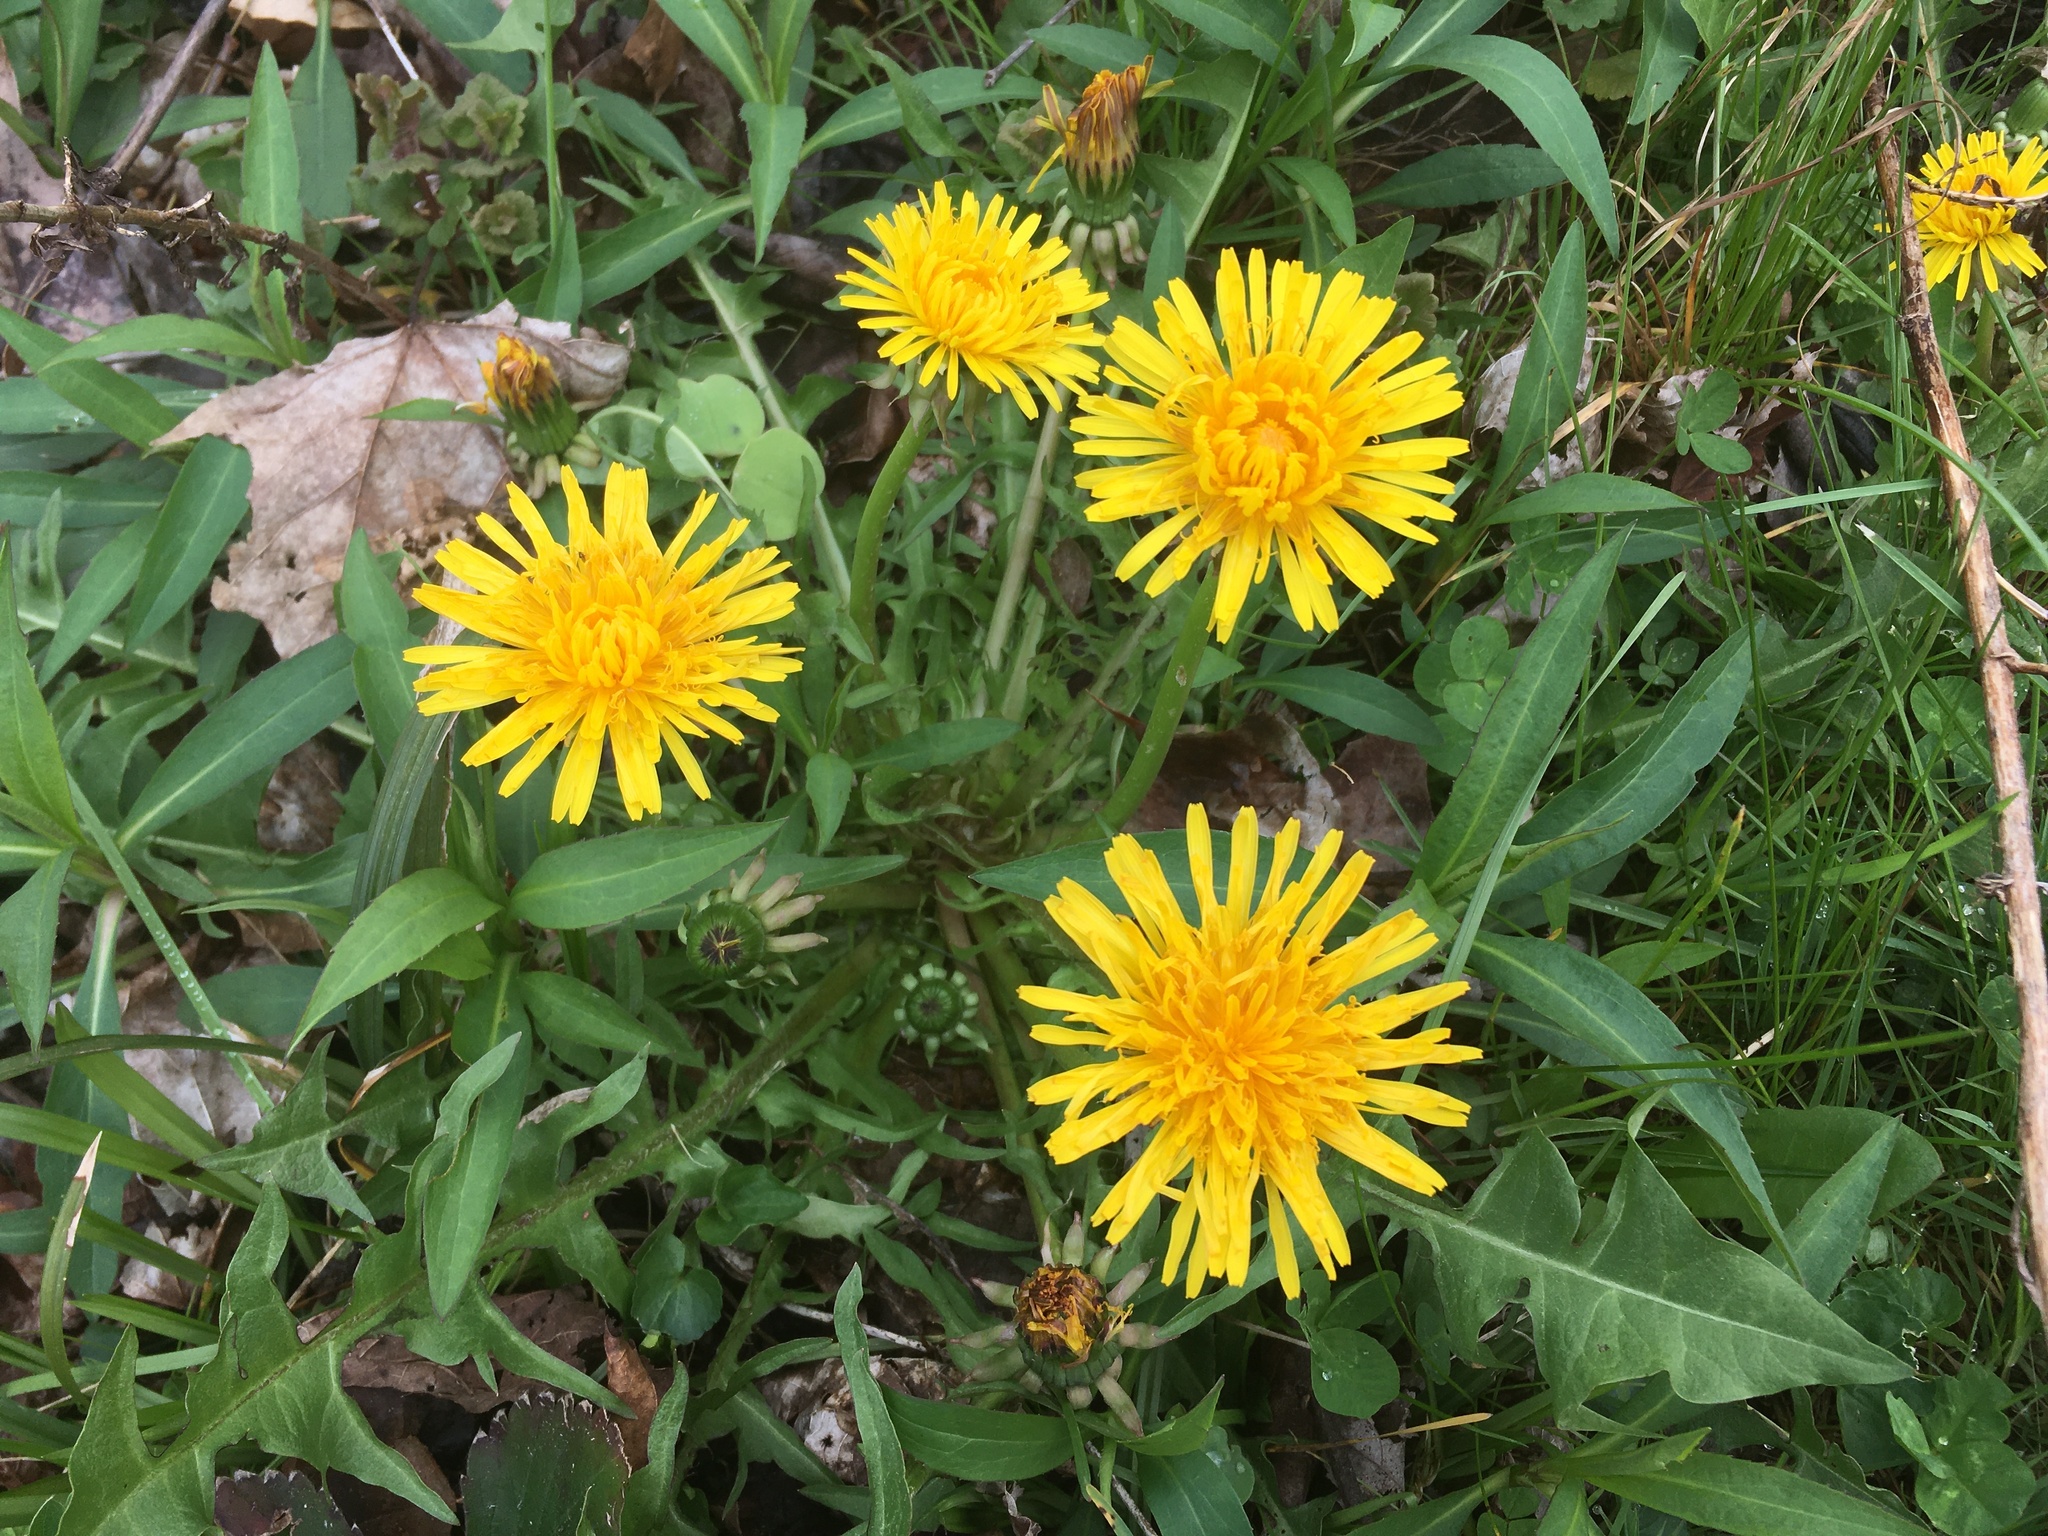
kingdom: Plantae
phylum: Tracheophyta
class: Magnoliopsida
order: Asterales
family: Asteraceae
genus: Taraxacum
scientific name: Taraxacum officinale
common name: Common dandelion
